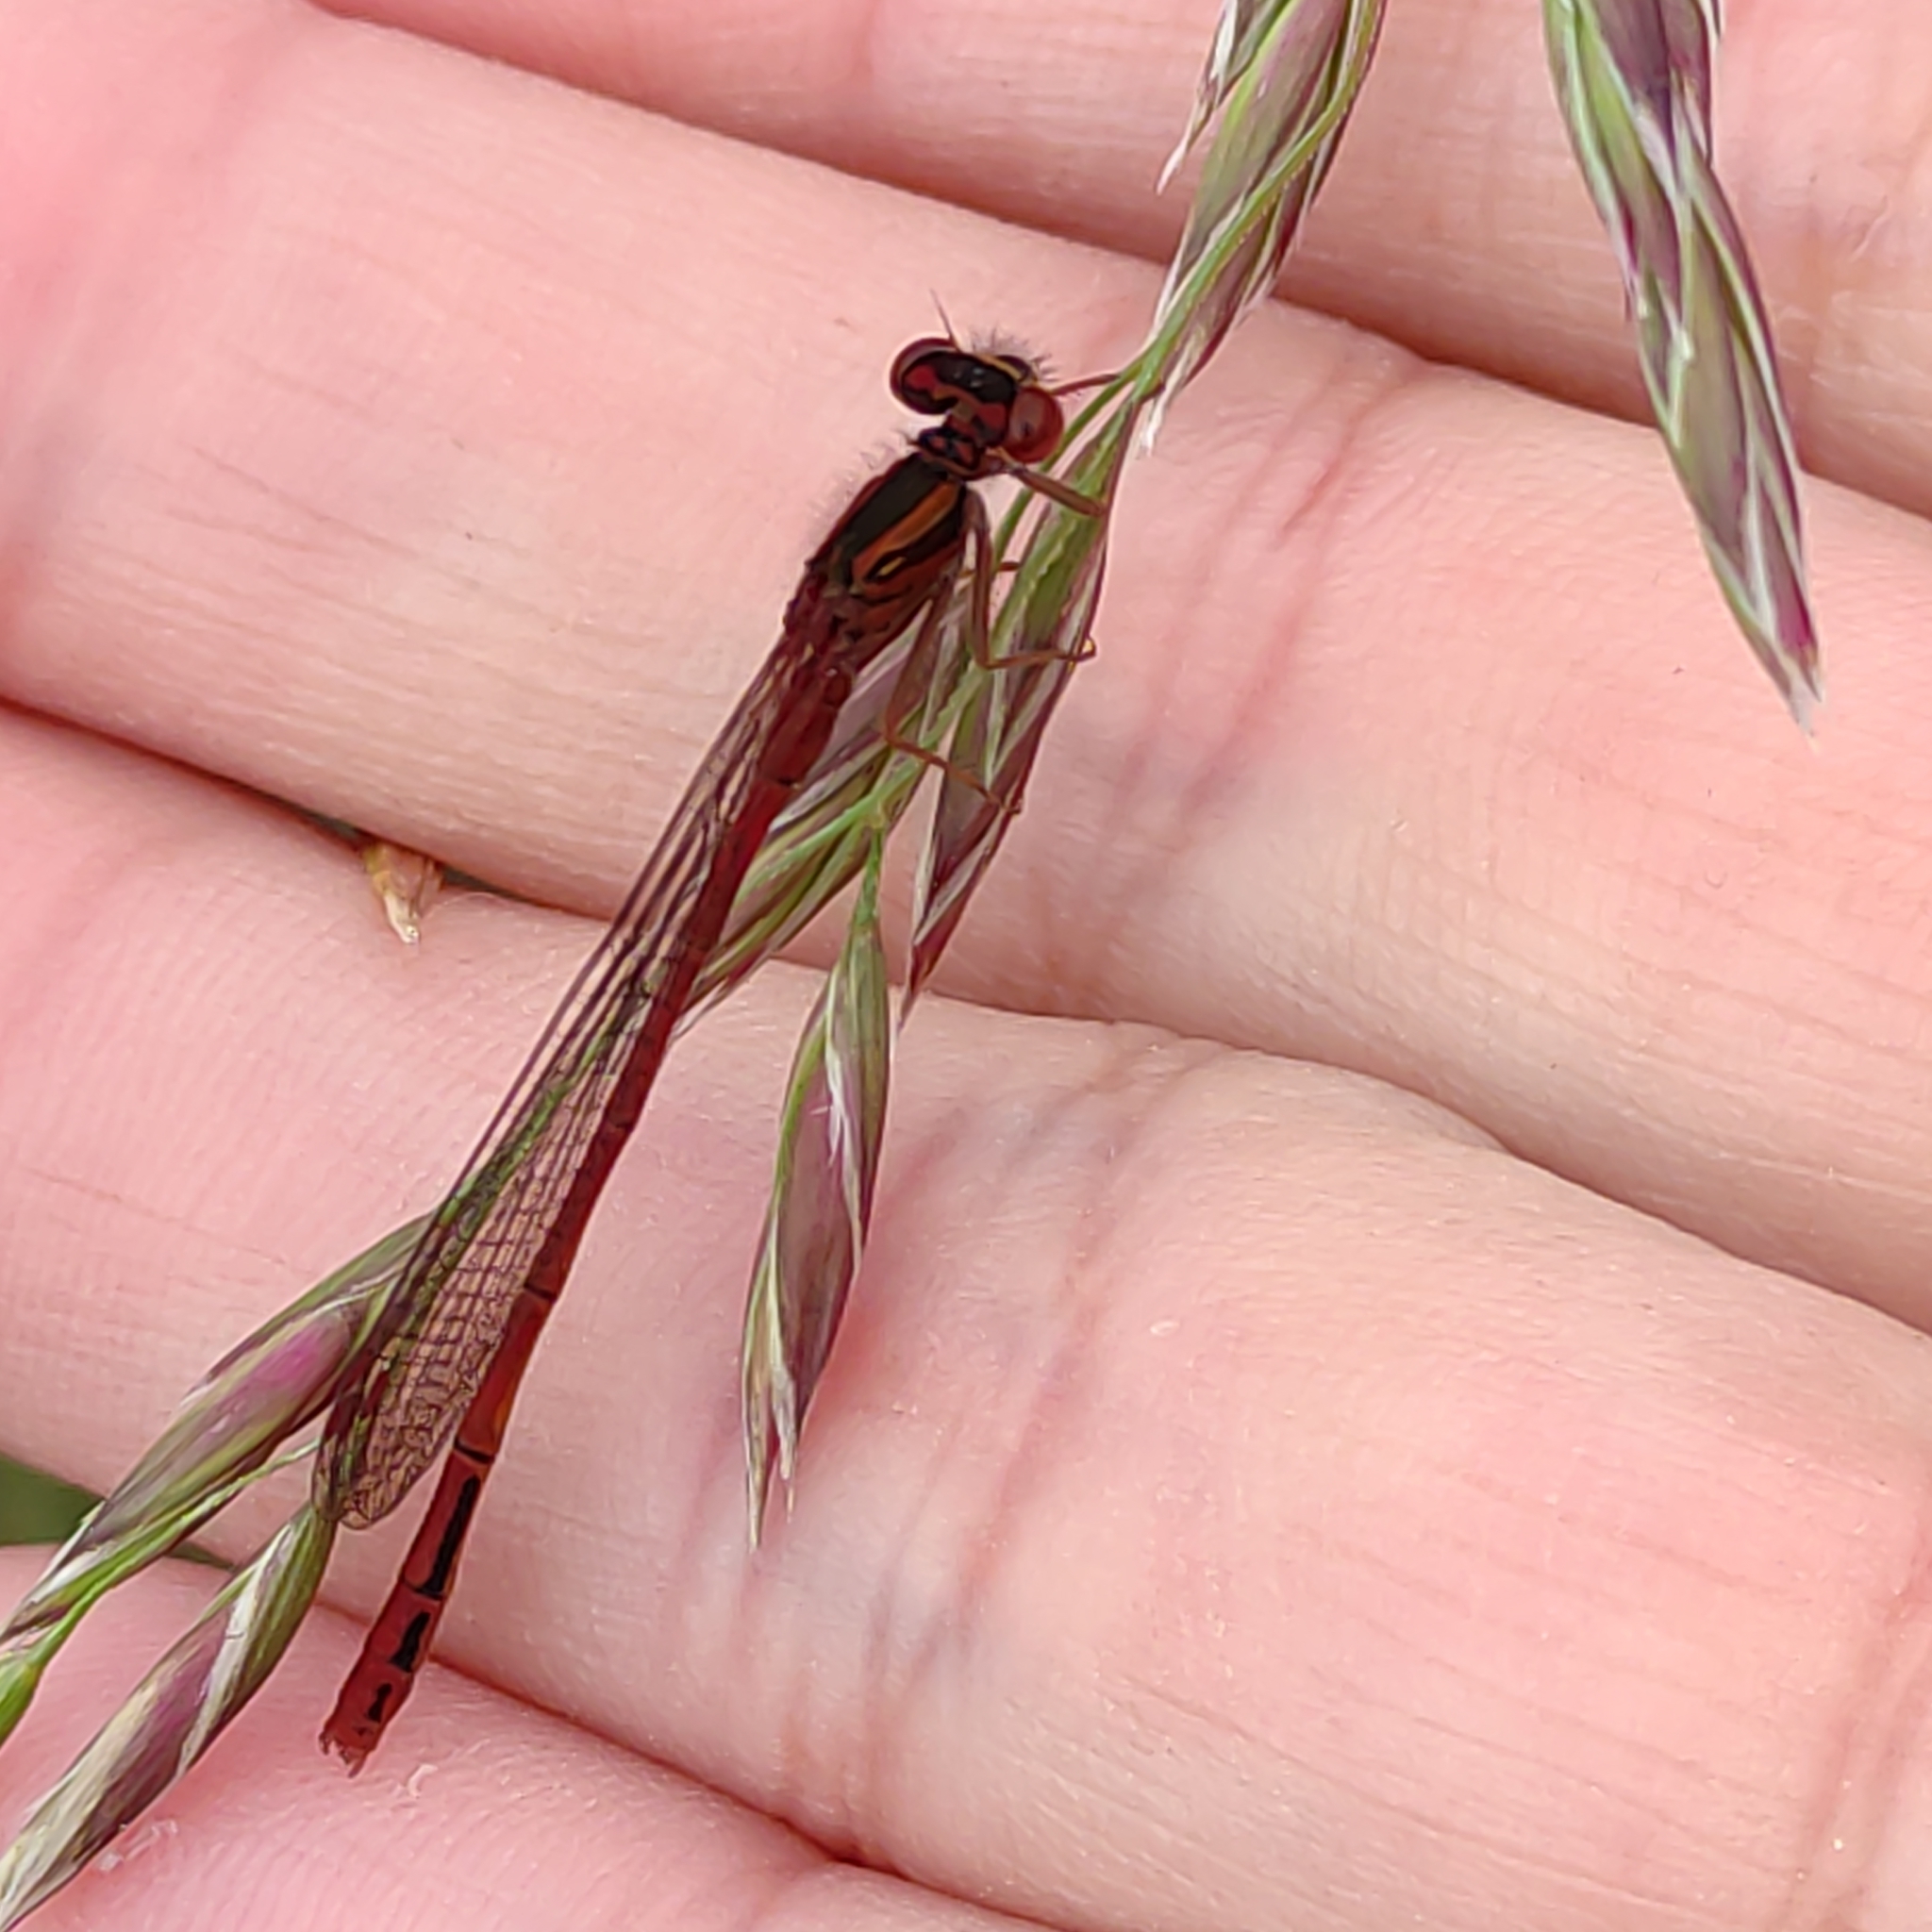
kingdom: Animalia
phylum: Arthropoda
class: Insecta
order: Odonata
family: Coenagrionidae
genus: Xanthocnemis
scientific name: Xanthocnemis zealandica
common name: Common redcoat damselfly
